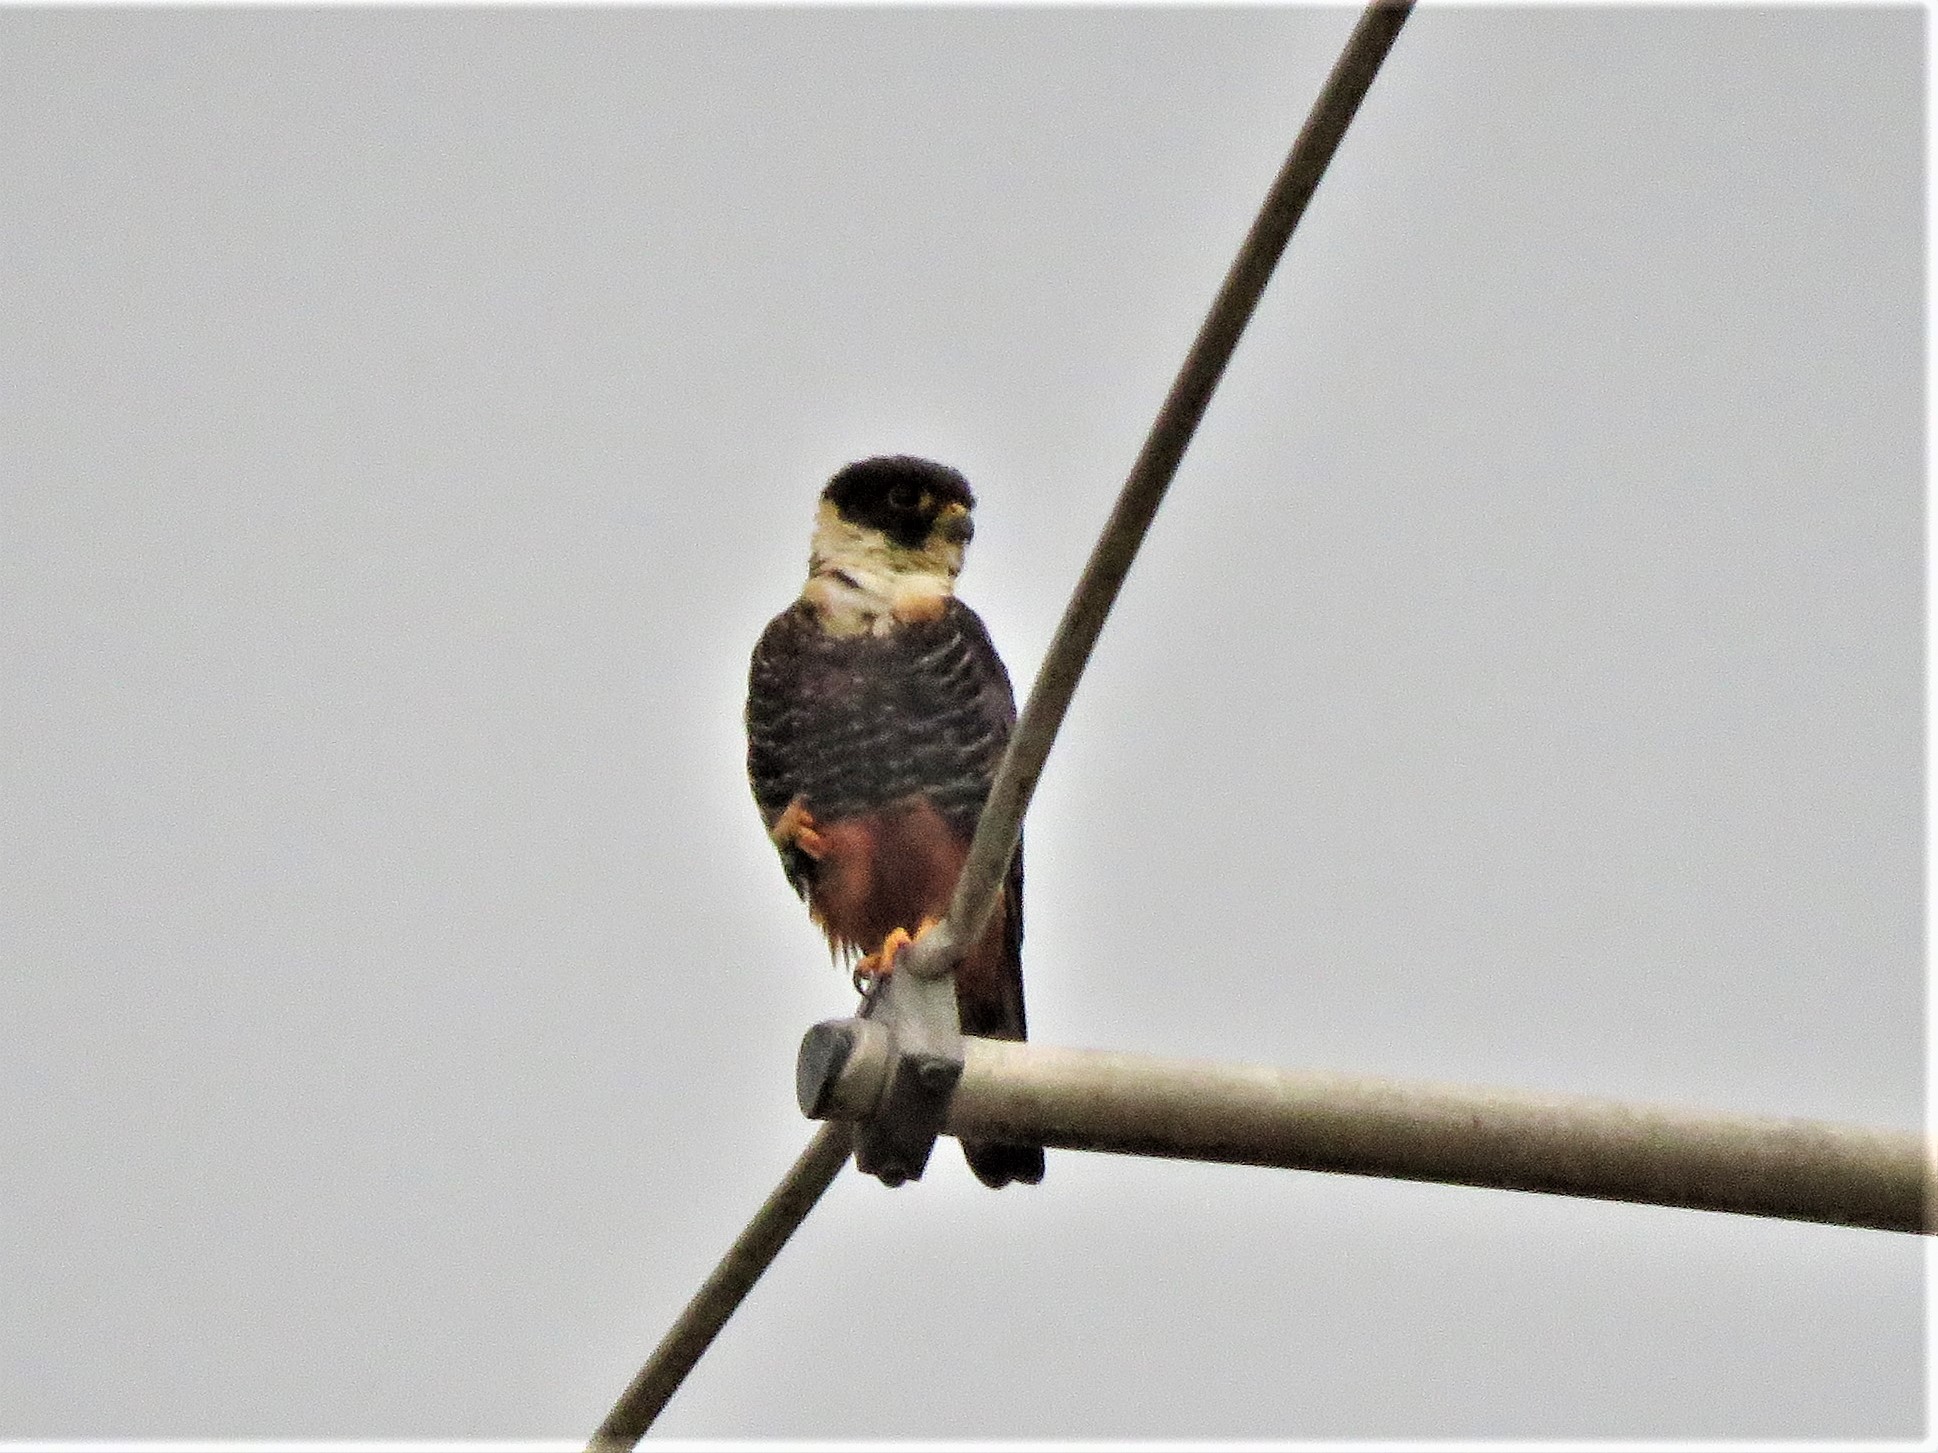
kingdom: Animalia
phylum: Chordata
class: Aves
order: Falconiformes
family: Falconidae
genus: Falco
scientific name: Falco rufigularis
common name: Bat falcon
